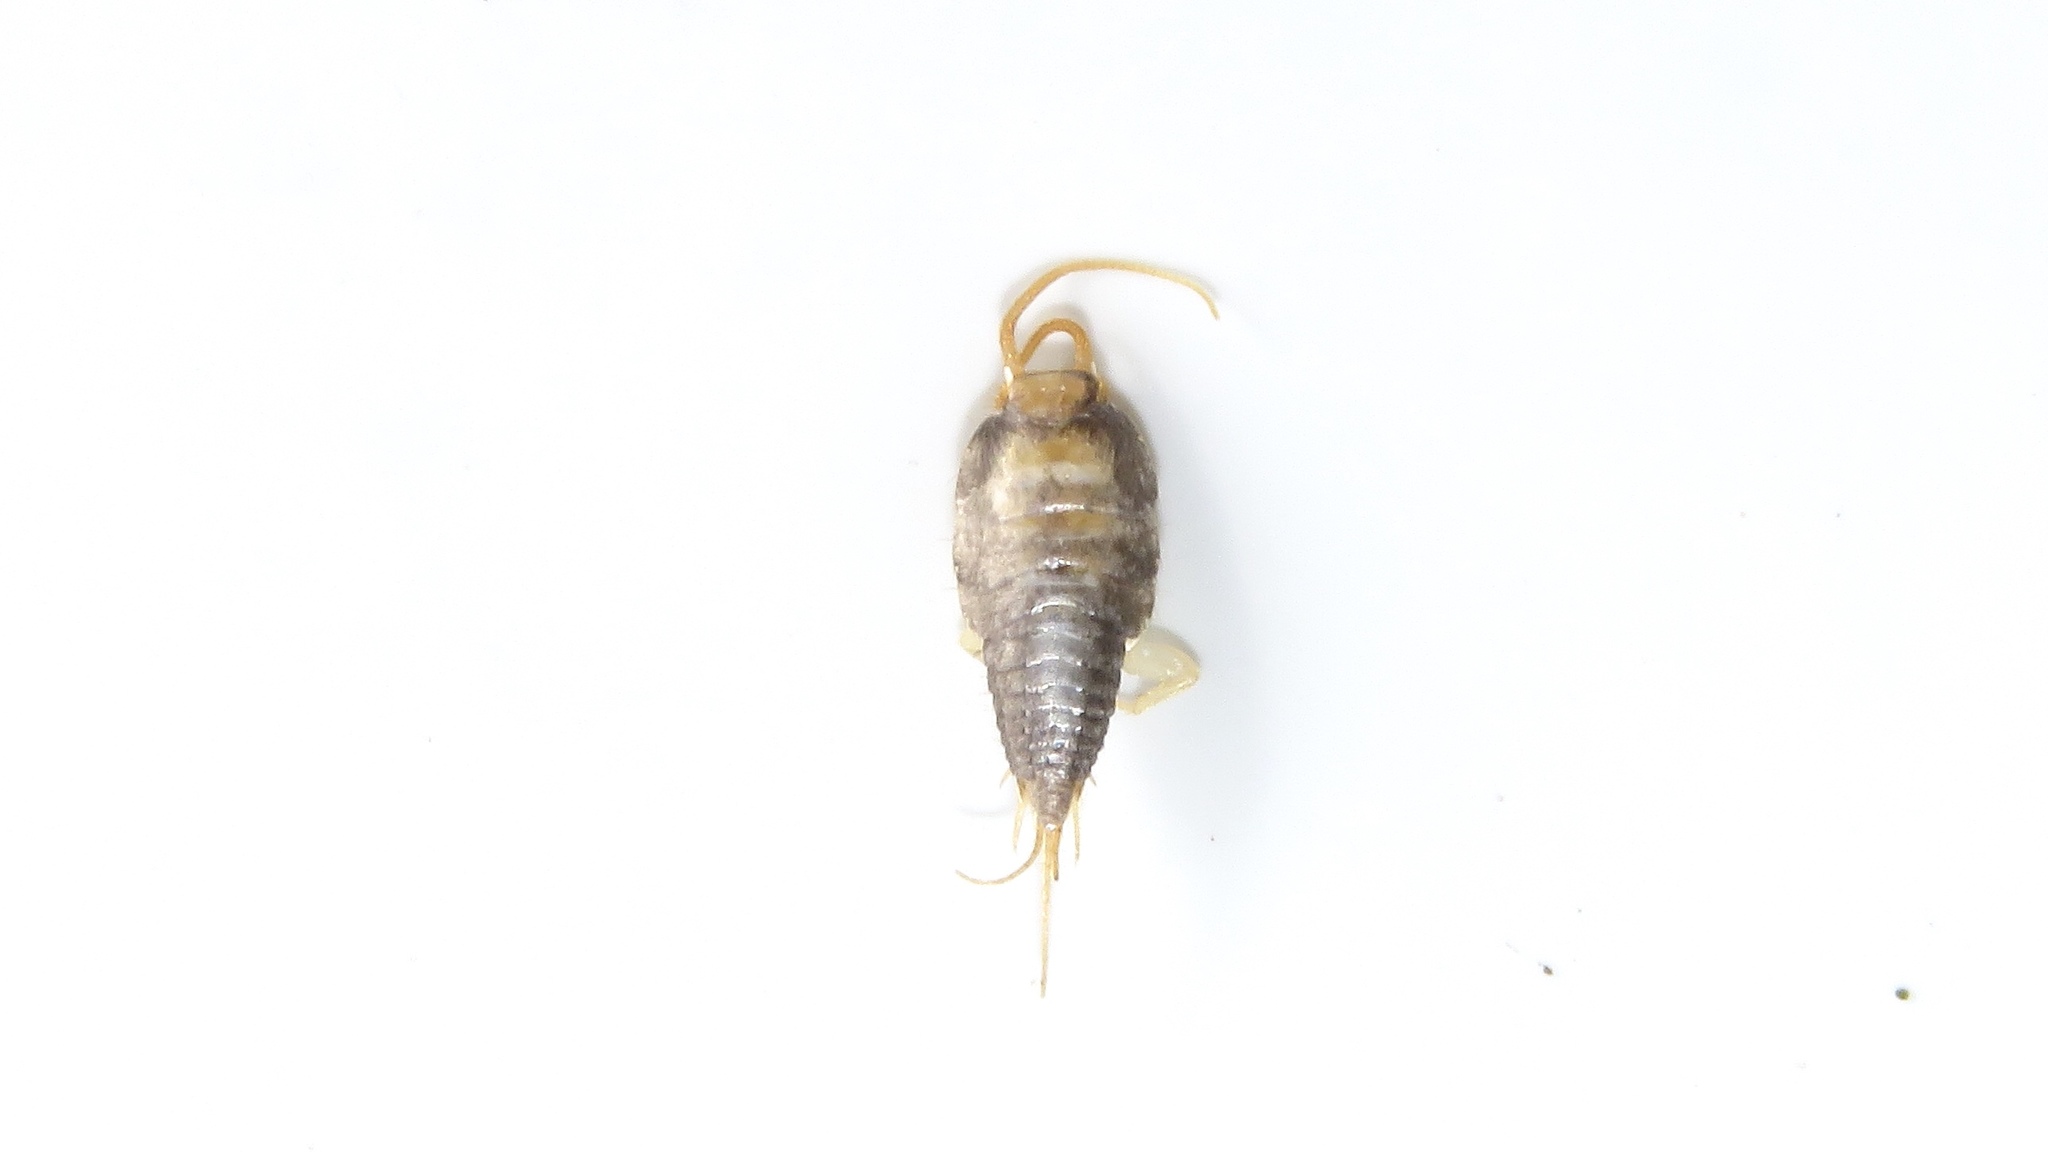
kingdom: Animalia
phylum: Arthropoda
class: Insecta
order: Zygentoma
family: Lepismatidae
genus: Lepisma
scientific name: Lepisma saccharinum
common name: Silverfish
